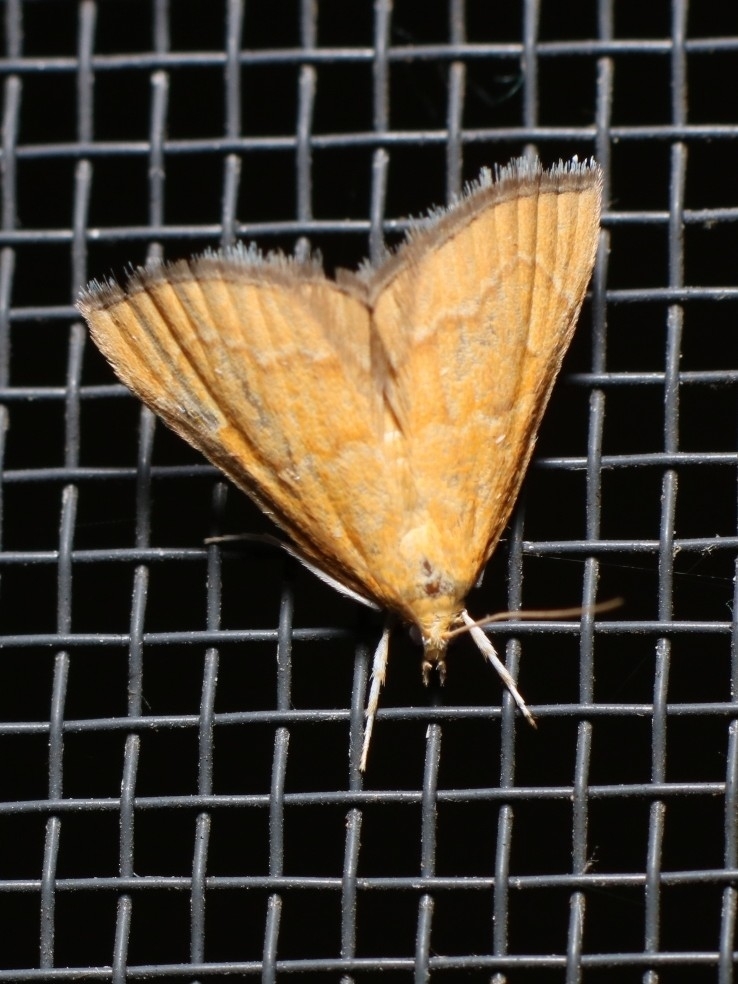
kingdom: Animalia
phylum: Arthropoda
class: Insecta
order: Lepidoptera
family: Crambidae
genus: Glaphyria
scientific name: Glaphyria invisalis
